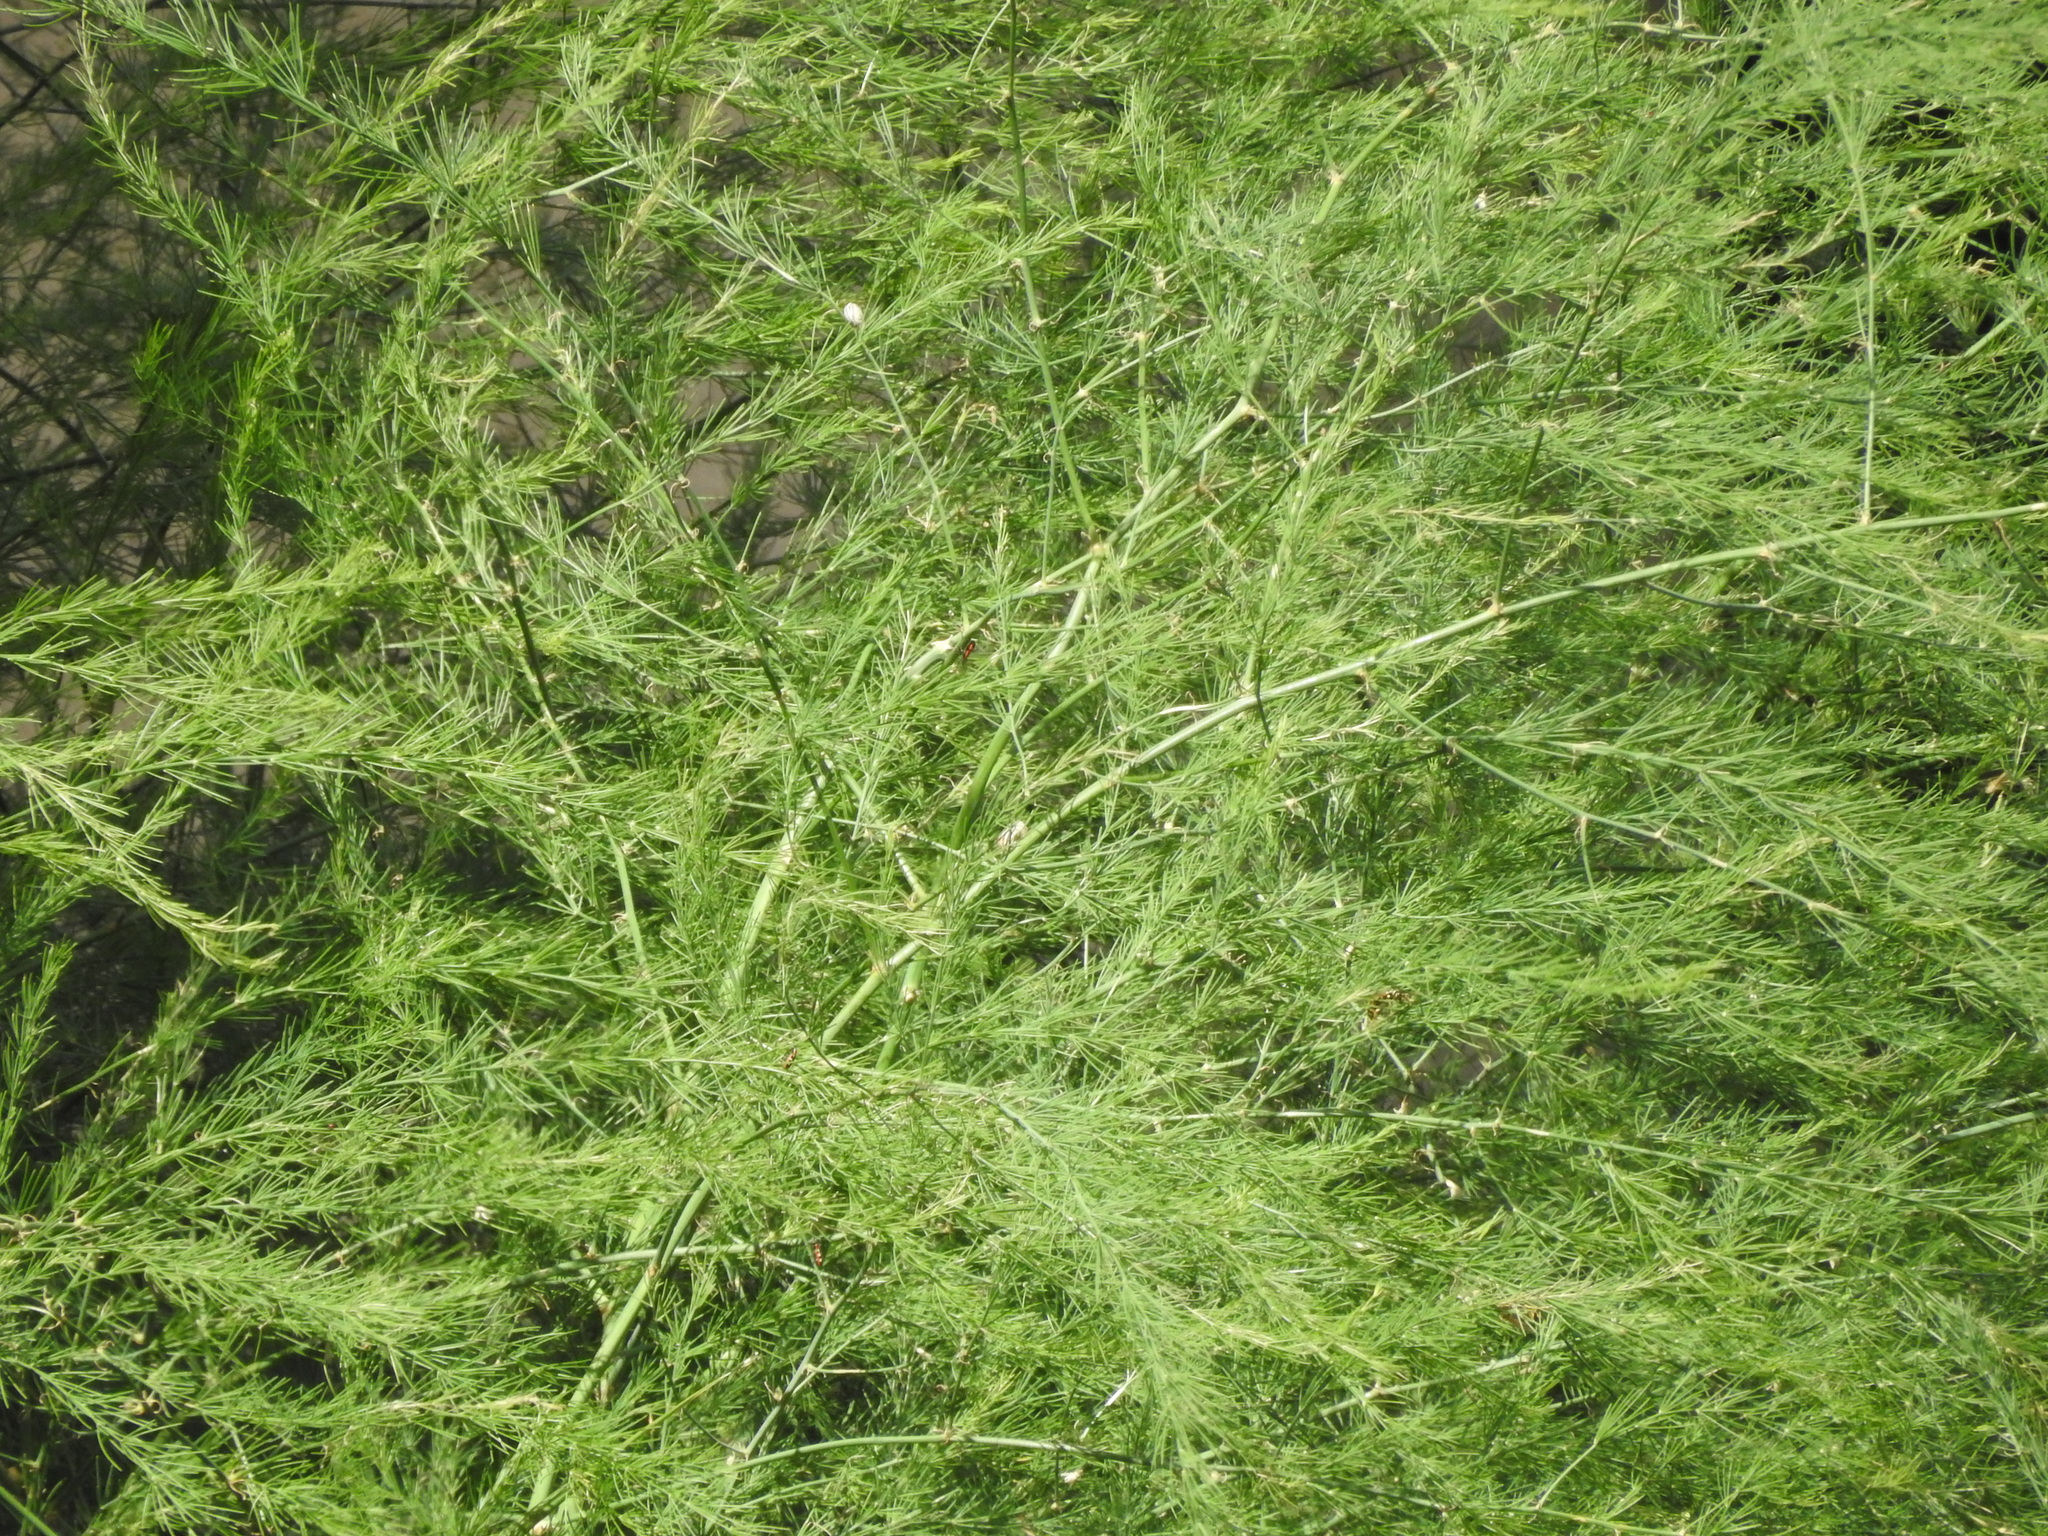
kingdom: Plantae
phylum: Tracheophyta
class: Liliopsida
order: Asparagales
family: Asparagaceae
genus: Asparagus
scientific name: Asparagus officinalis
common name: Garden asparagus
